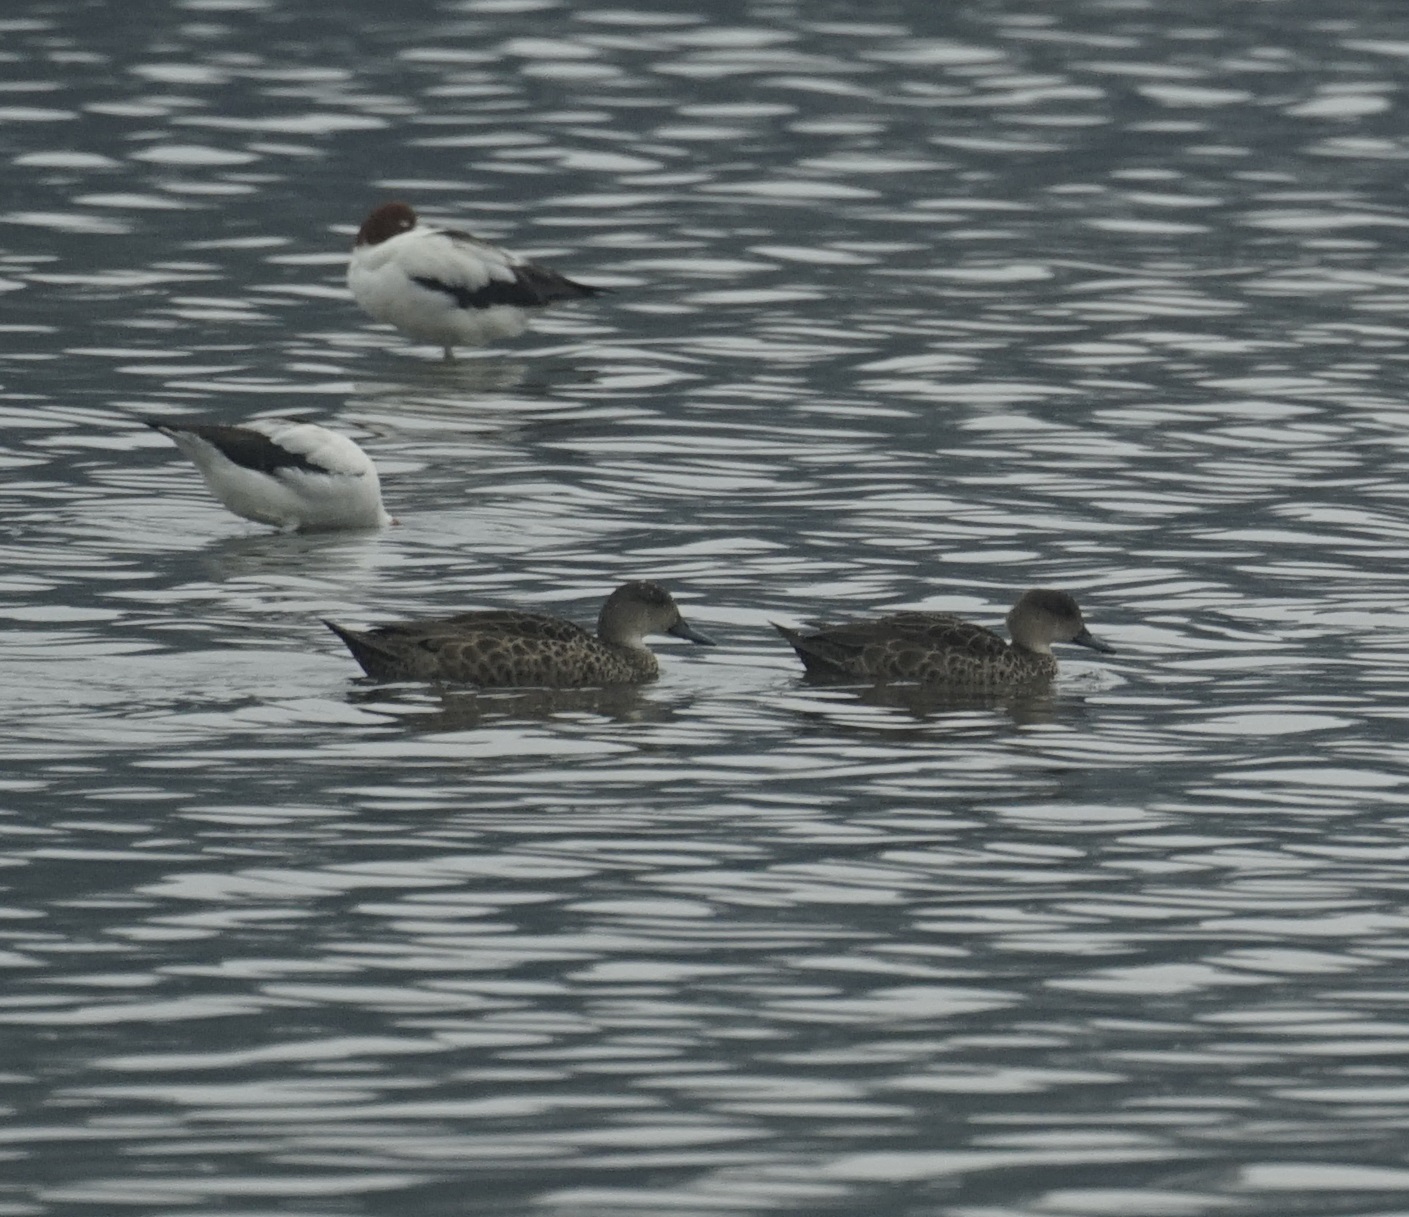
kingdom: Animalia
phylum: Chordata
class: Aves
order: Anseriformes
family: Anatidae
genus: Anas
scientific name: Anas gracilis
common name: Grey teal
